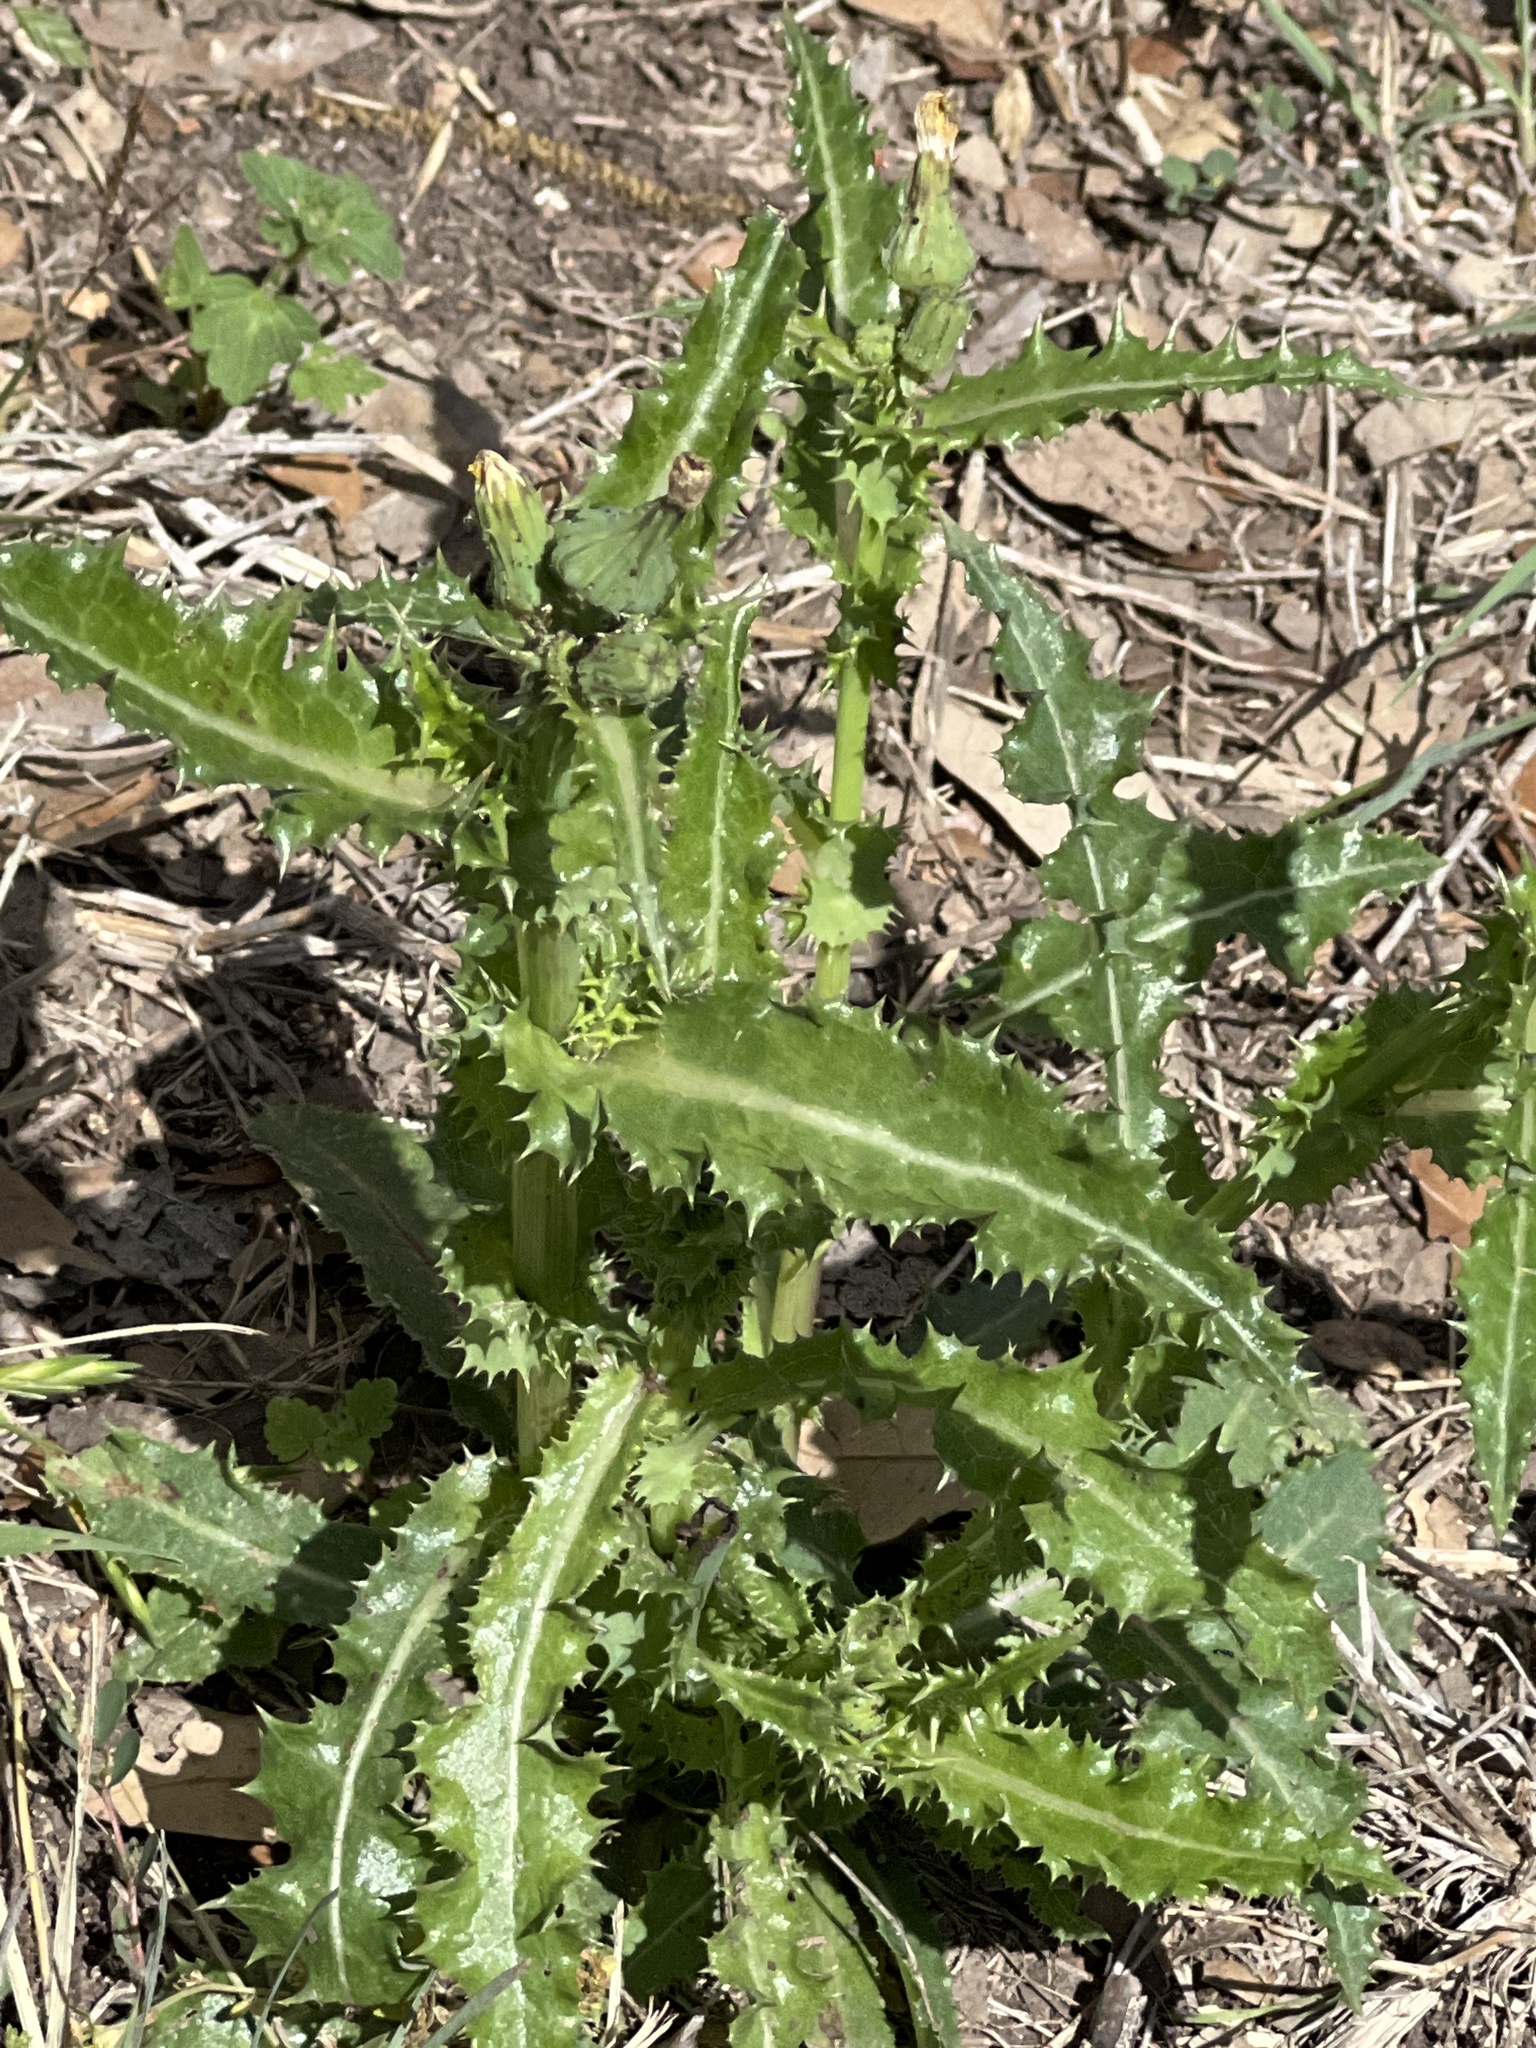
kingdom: Plantae
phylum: Tracheophyta
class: Magnoliopsida
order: Asterales
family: Asteraceae
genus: Sonchus
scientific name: Sonchus asper
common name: Prickly sow-thistle
